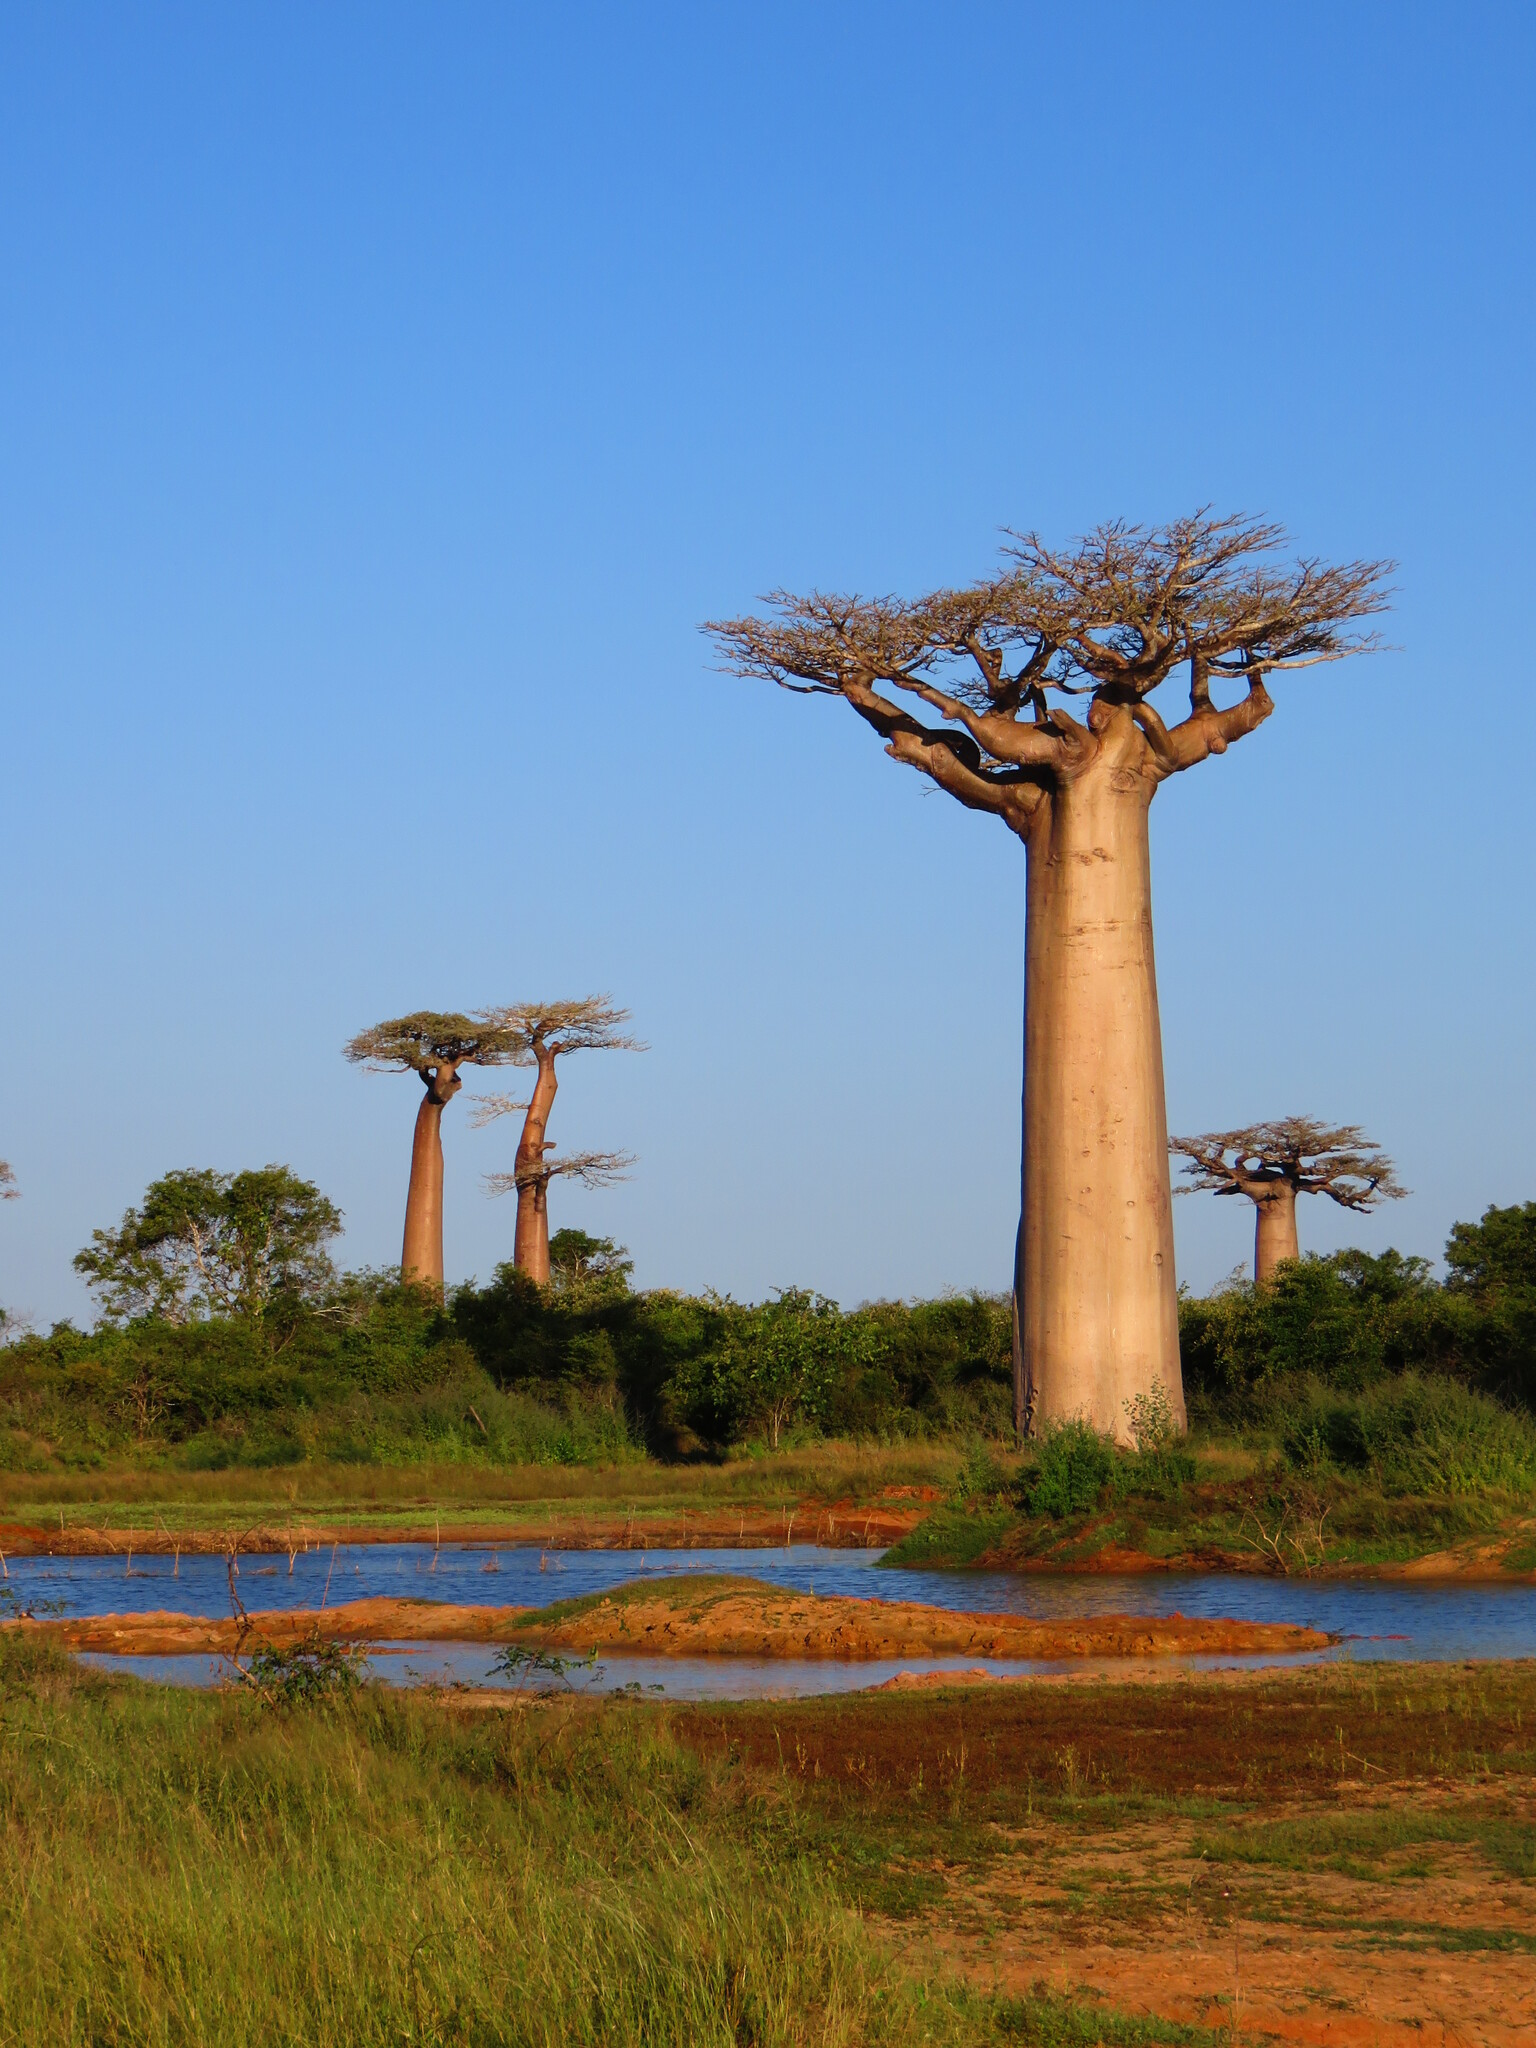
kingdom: Plantae
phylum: Tracheophyta
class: Magnoliopsida
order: Malvales
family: Malvaceae
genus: Adansonia
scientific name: Adansonia grandidieri
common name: Grandidier's baobab
